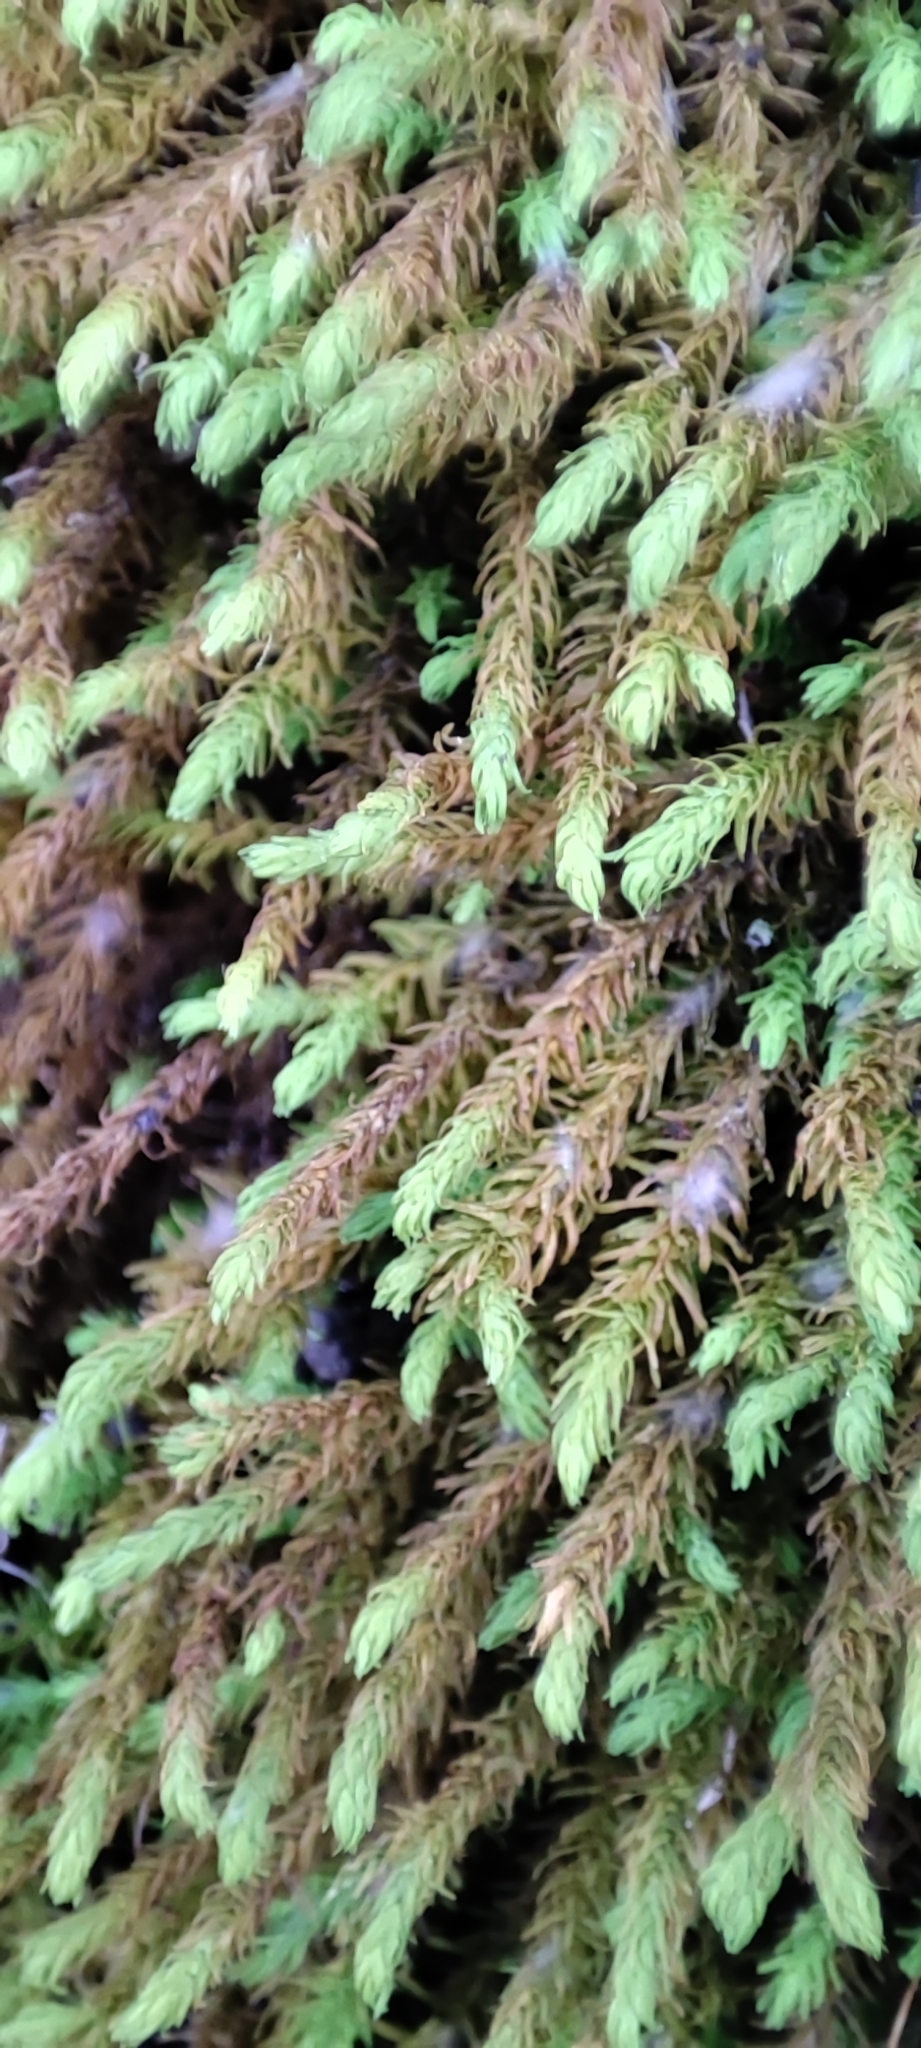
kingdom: Plantae
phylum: Bryophyta
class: Bryopsida
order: Hypnales
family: Anomodontaceae
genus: Anomodon
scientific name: Anomodon viticulosus
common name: Tall anomodon
